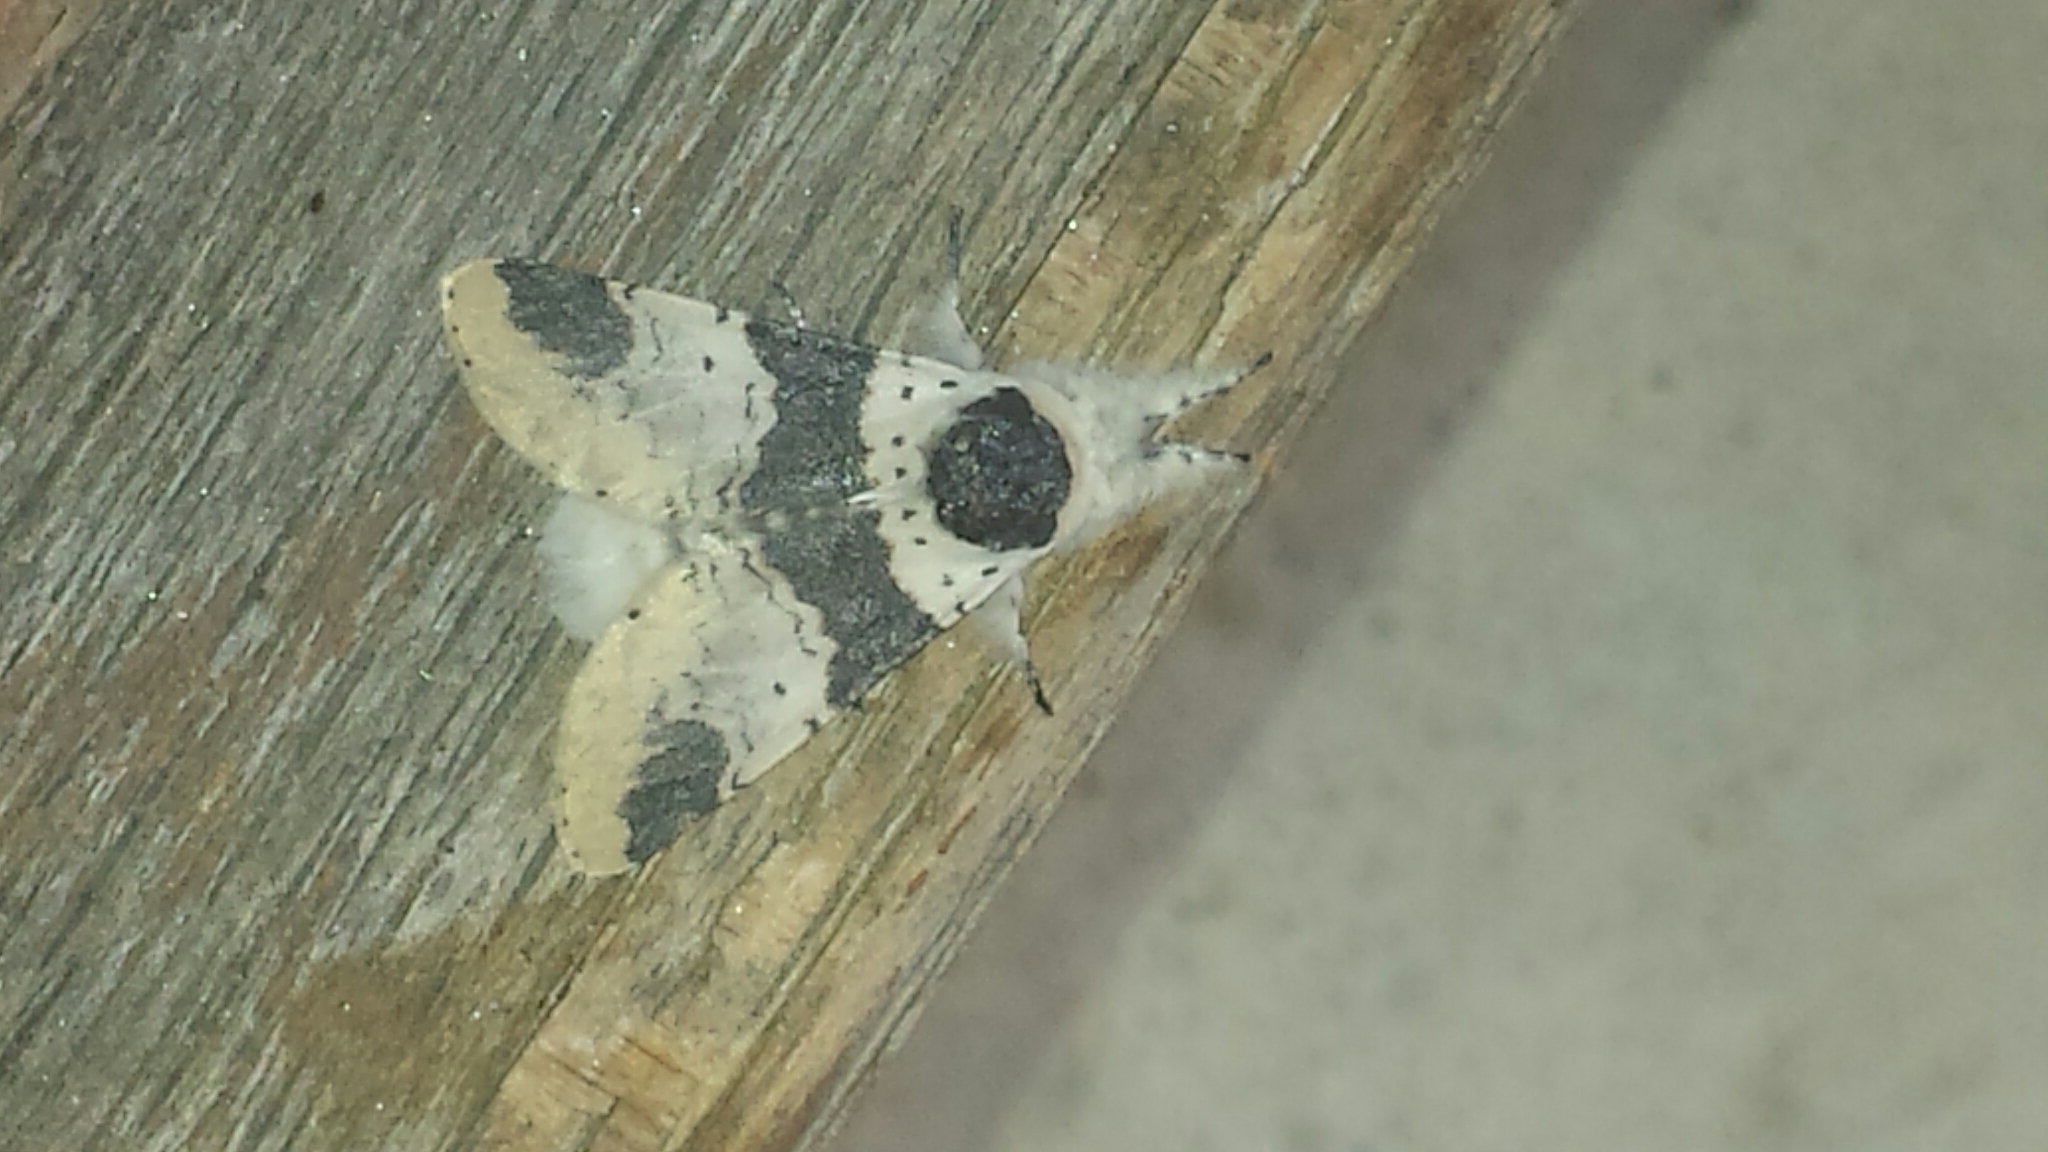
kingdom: Animalia
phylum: Arthropoda
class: Insecta
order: Lepidoptera
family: Notodontidae
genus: Furcula
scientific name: Furcula modesta
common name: Modest furcula moth
